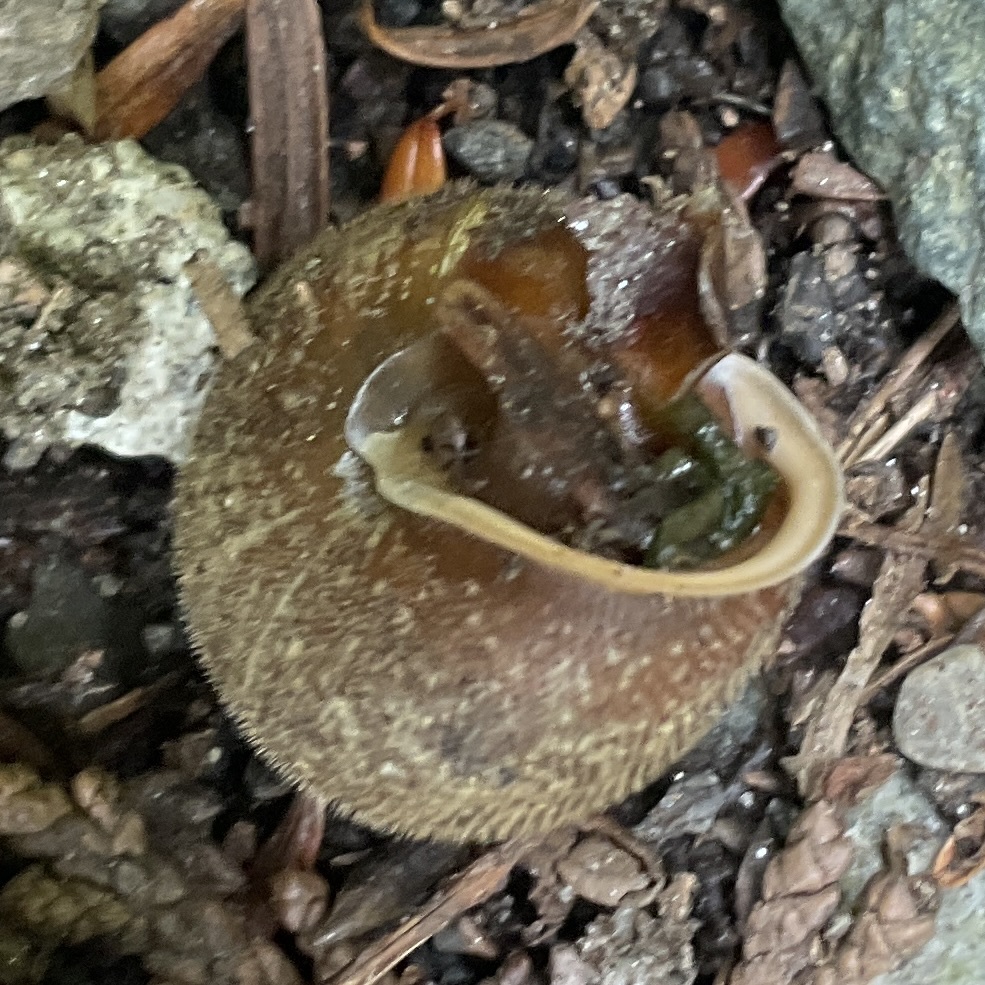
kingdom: Animalia
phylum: Mollusca
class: Gastropoda
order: Stylommatophora
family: Polygyridae
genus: Vespericola
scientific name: Vespericola columbianus
